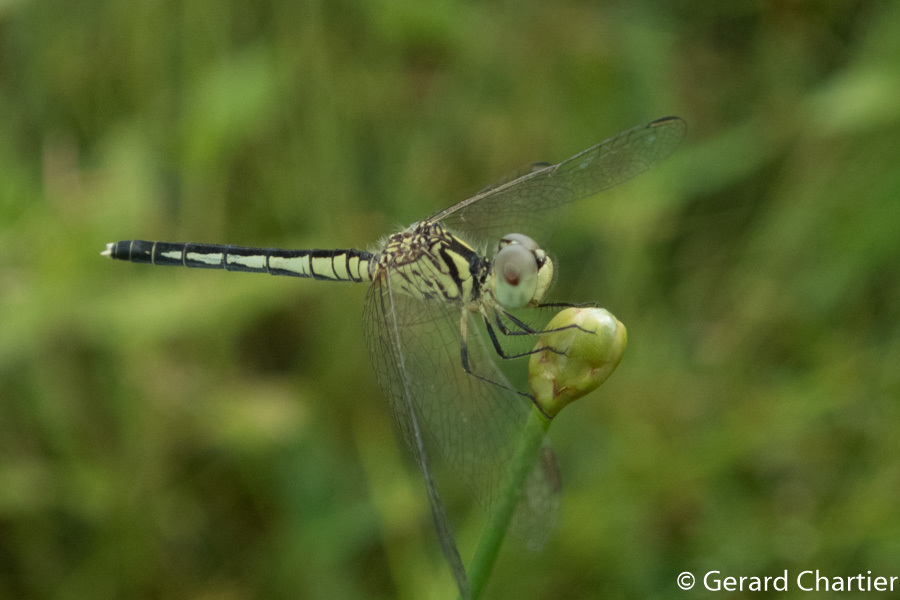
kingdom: Animalia
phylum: Arthropoda
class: Insecta
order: Odonata
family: Libellulidae
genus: Diplacodes
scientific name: Diplacodes nebulosa
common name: Black-tipped percher
